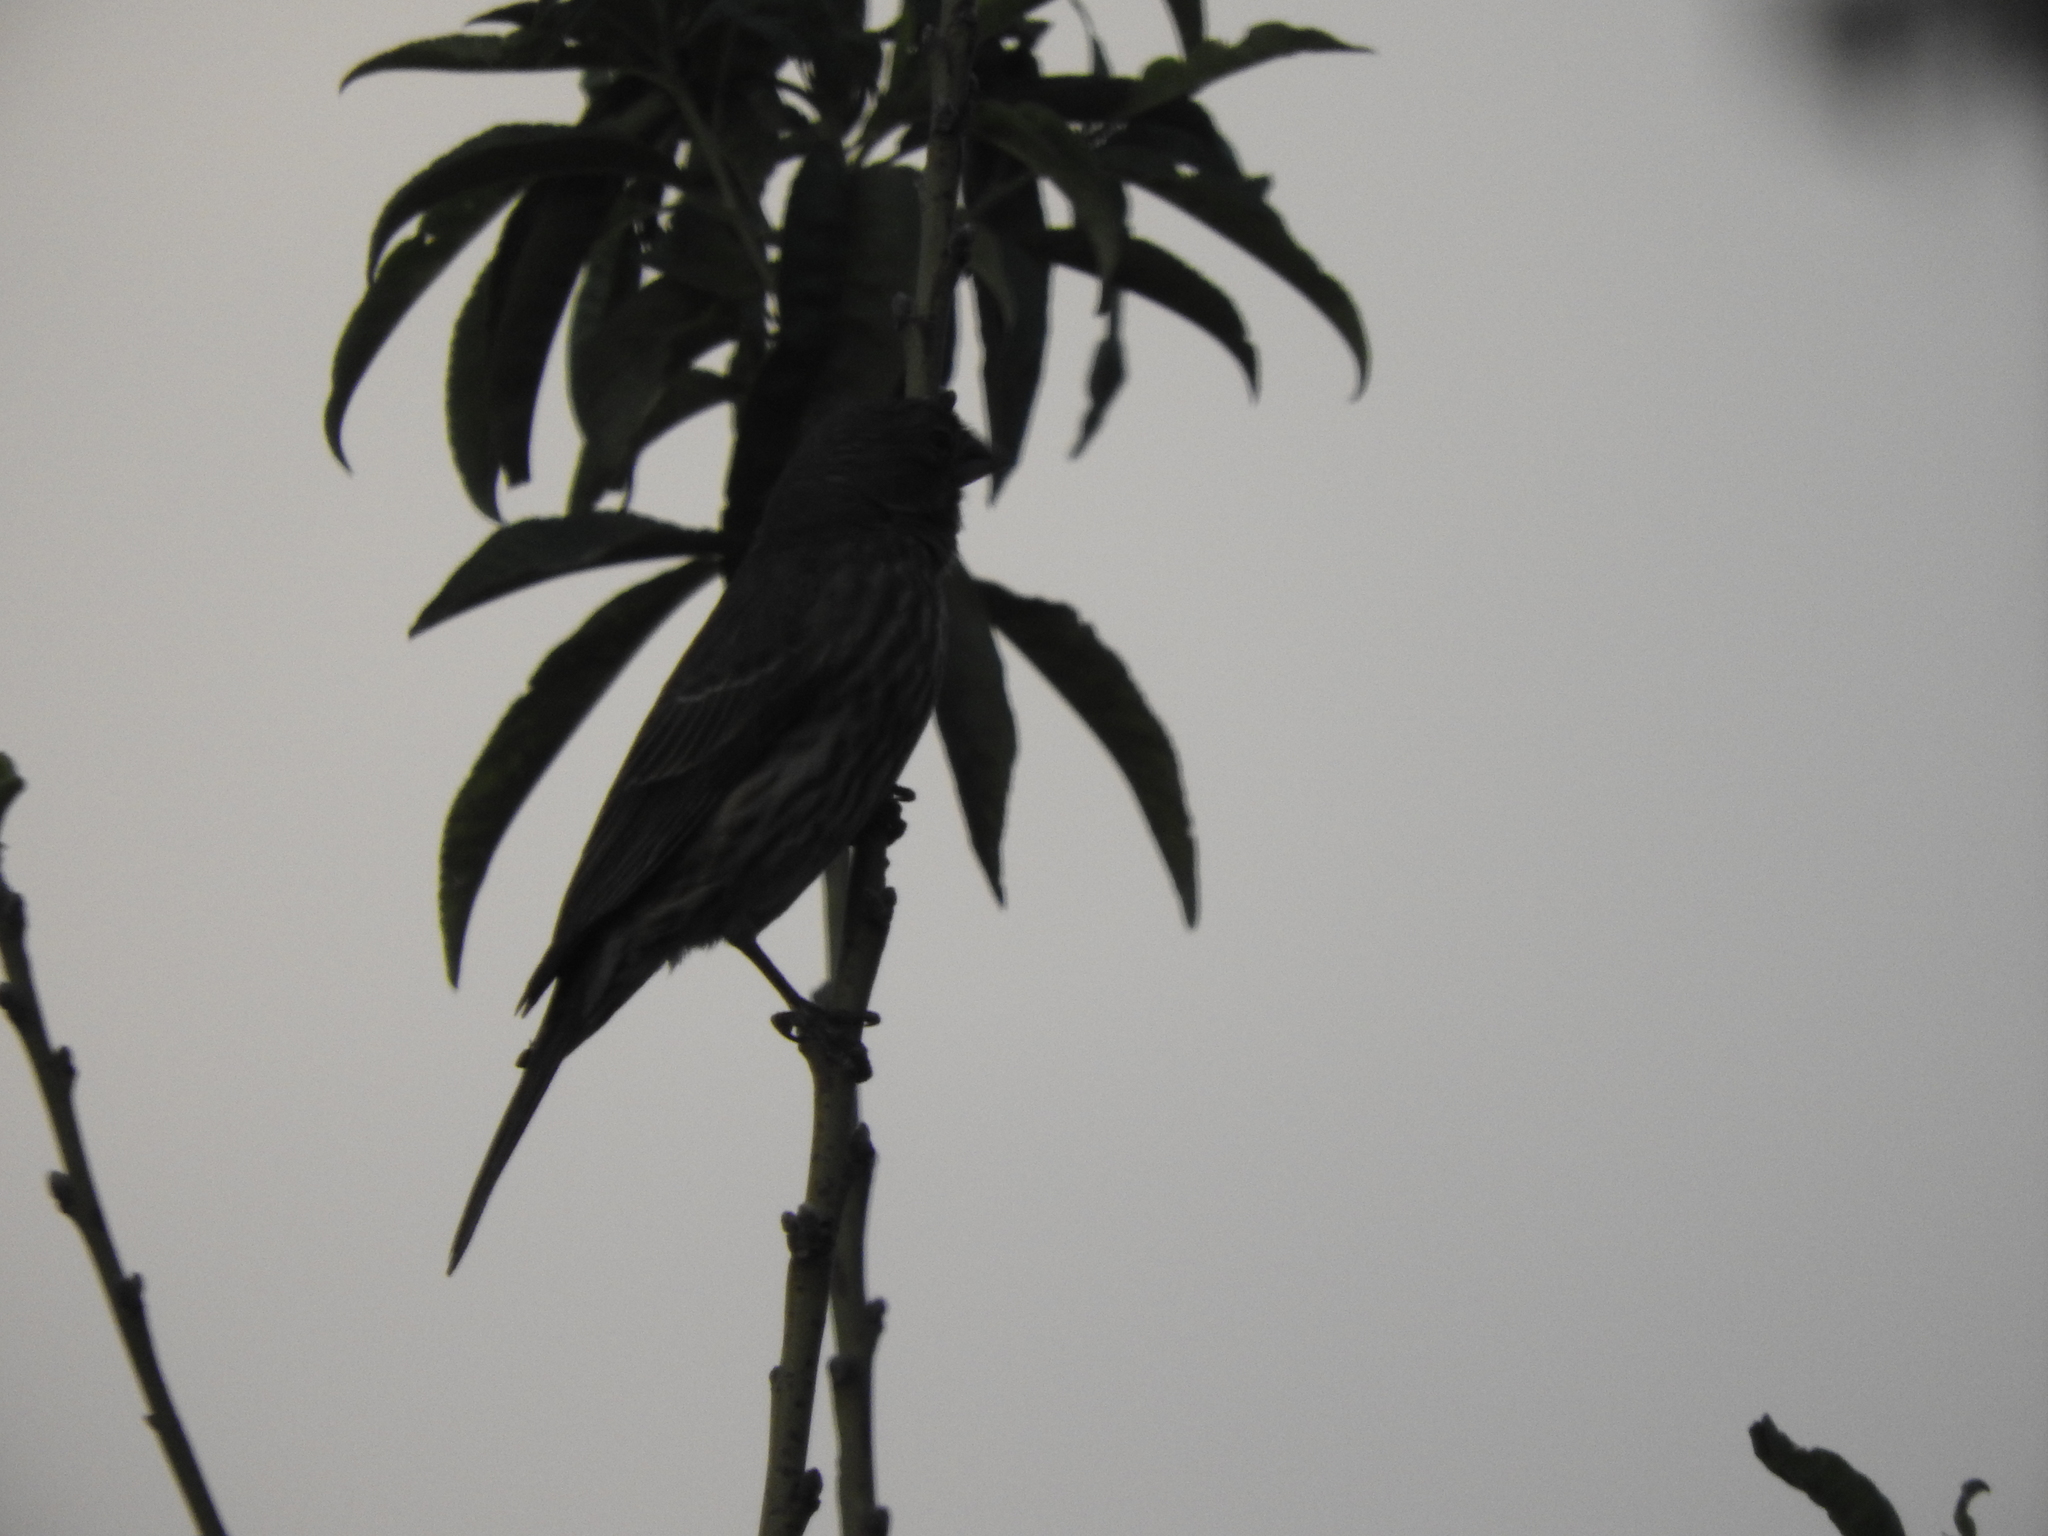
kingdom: Animalia
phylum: Chordata
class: Aves
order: Passeriformes
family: Fringillidae
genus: Haemorhous
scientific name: Haemorhous mexicanus
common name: House finch
